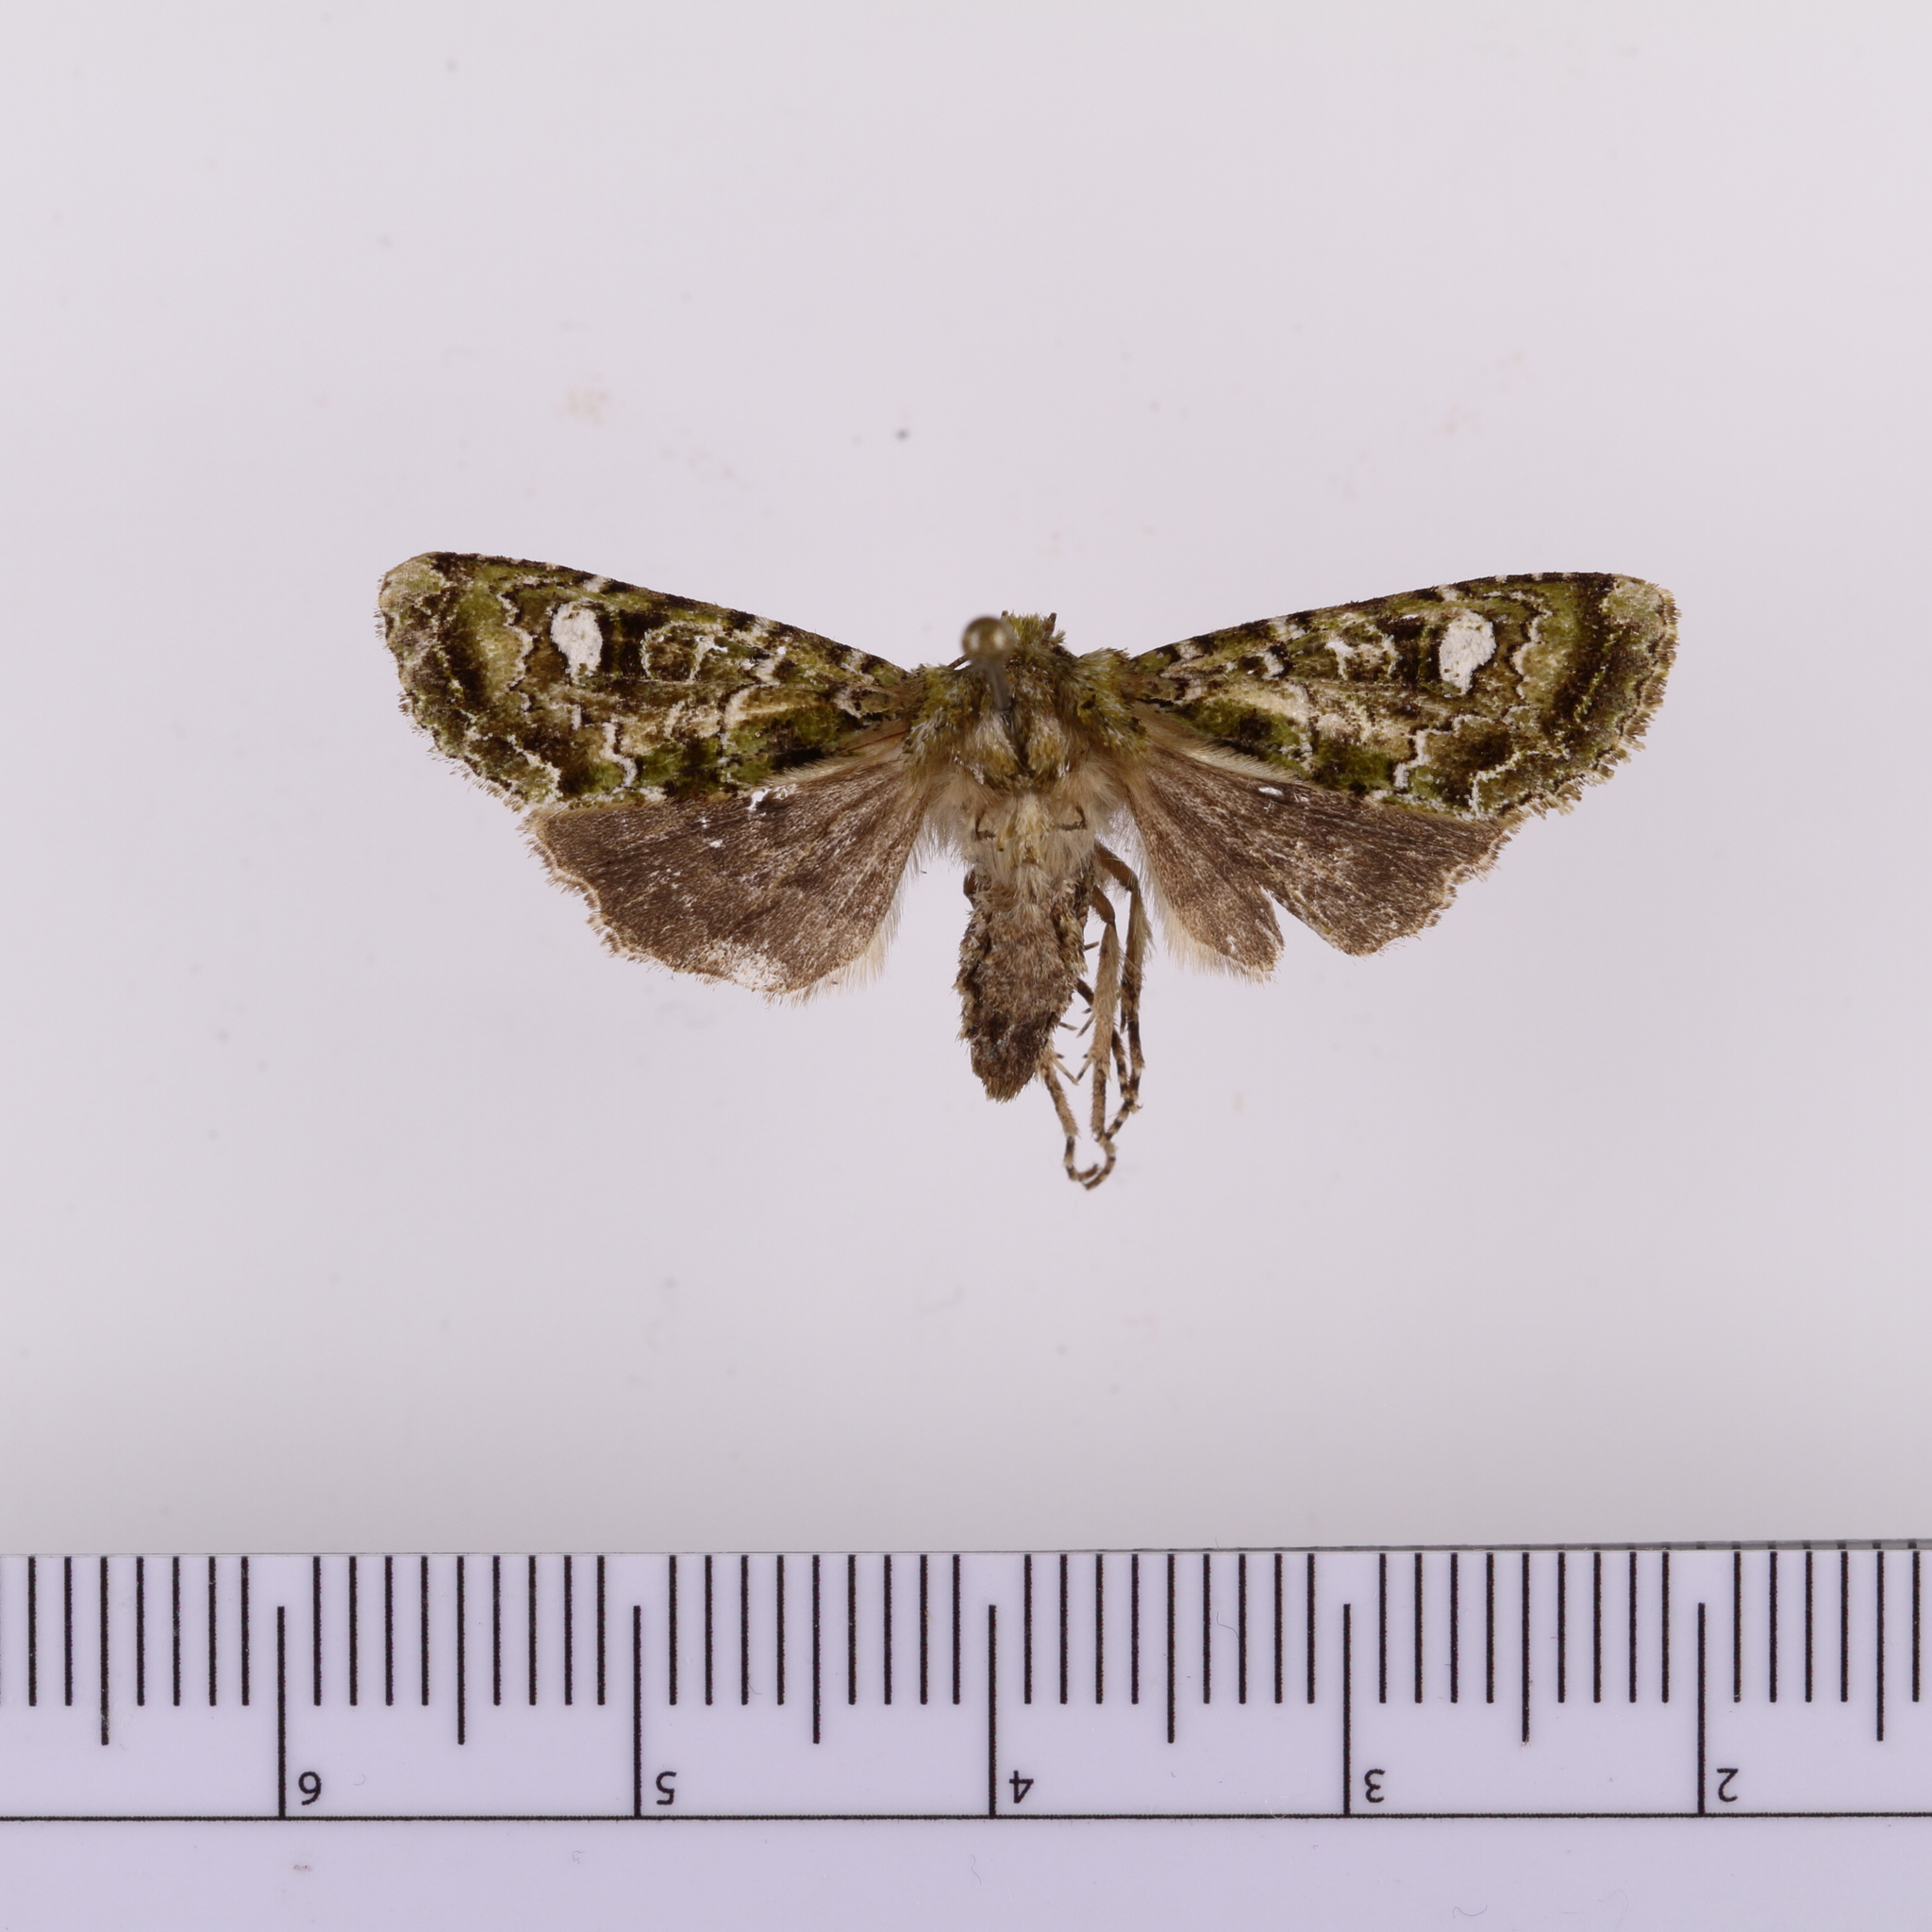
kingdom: Animalia
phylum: Arthropoda
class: Insecta
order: Lepidoptera
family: Noctuidae
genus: Ichneutica
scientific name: Ichneutica
